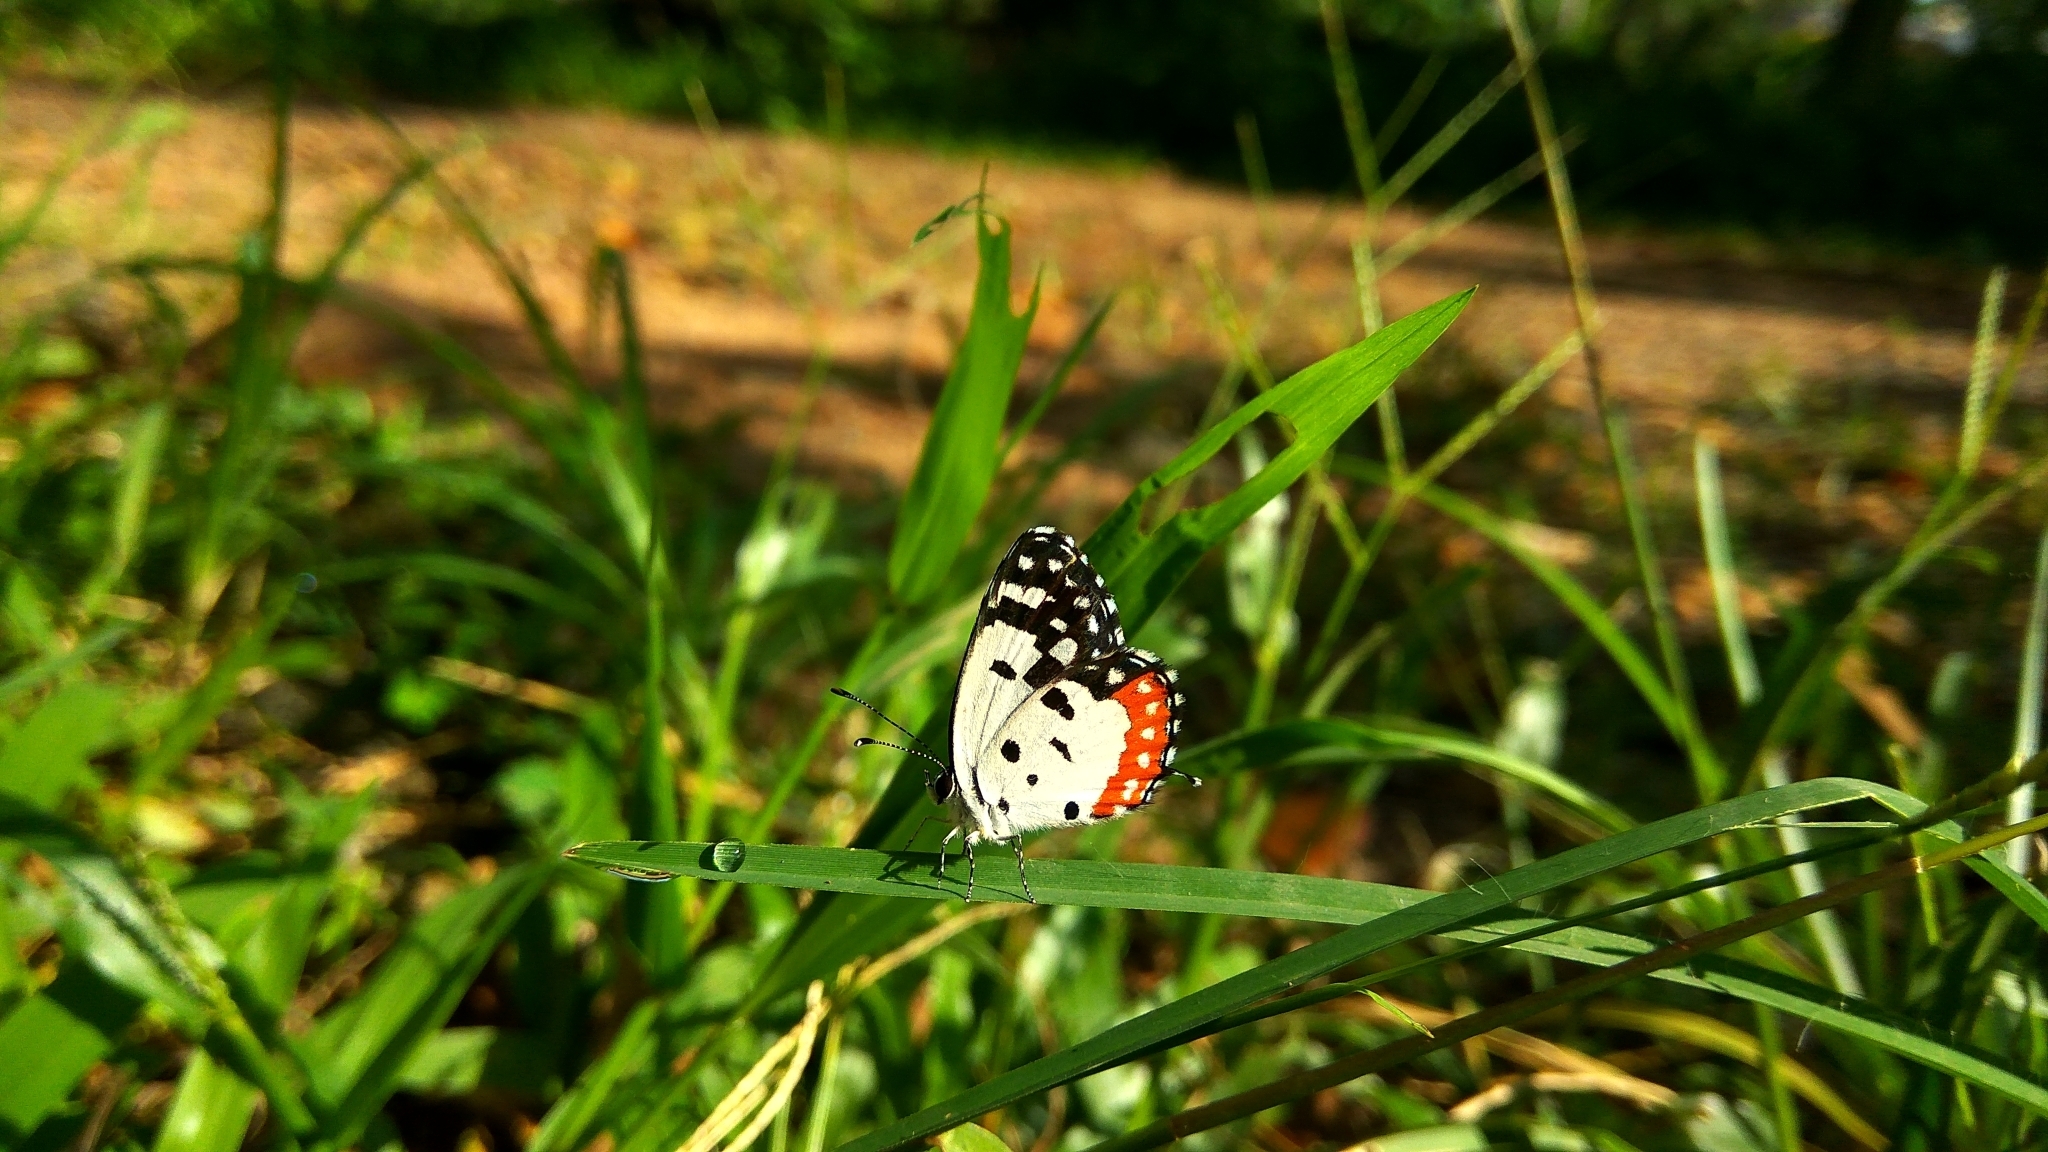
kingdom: Animalia
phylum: Arthropoda
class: Insecta
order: Lepidoptera
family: Lycaenidae
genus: Talicada
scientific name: Talicada nyseus
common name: Red pierrot
